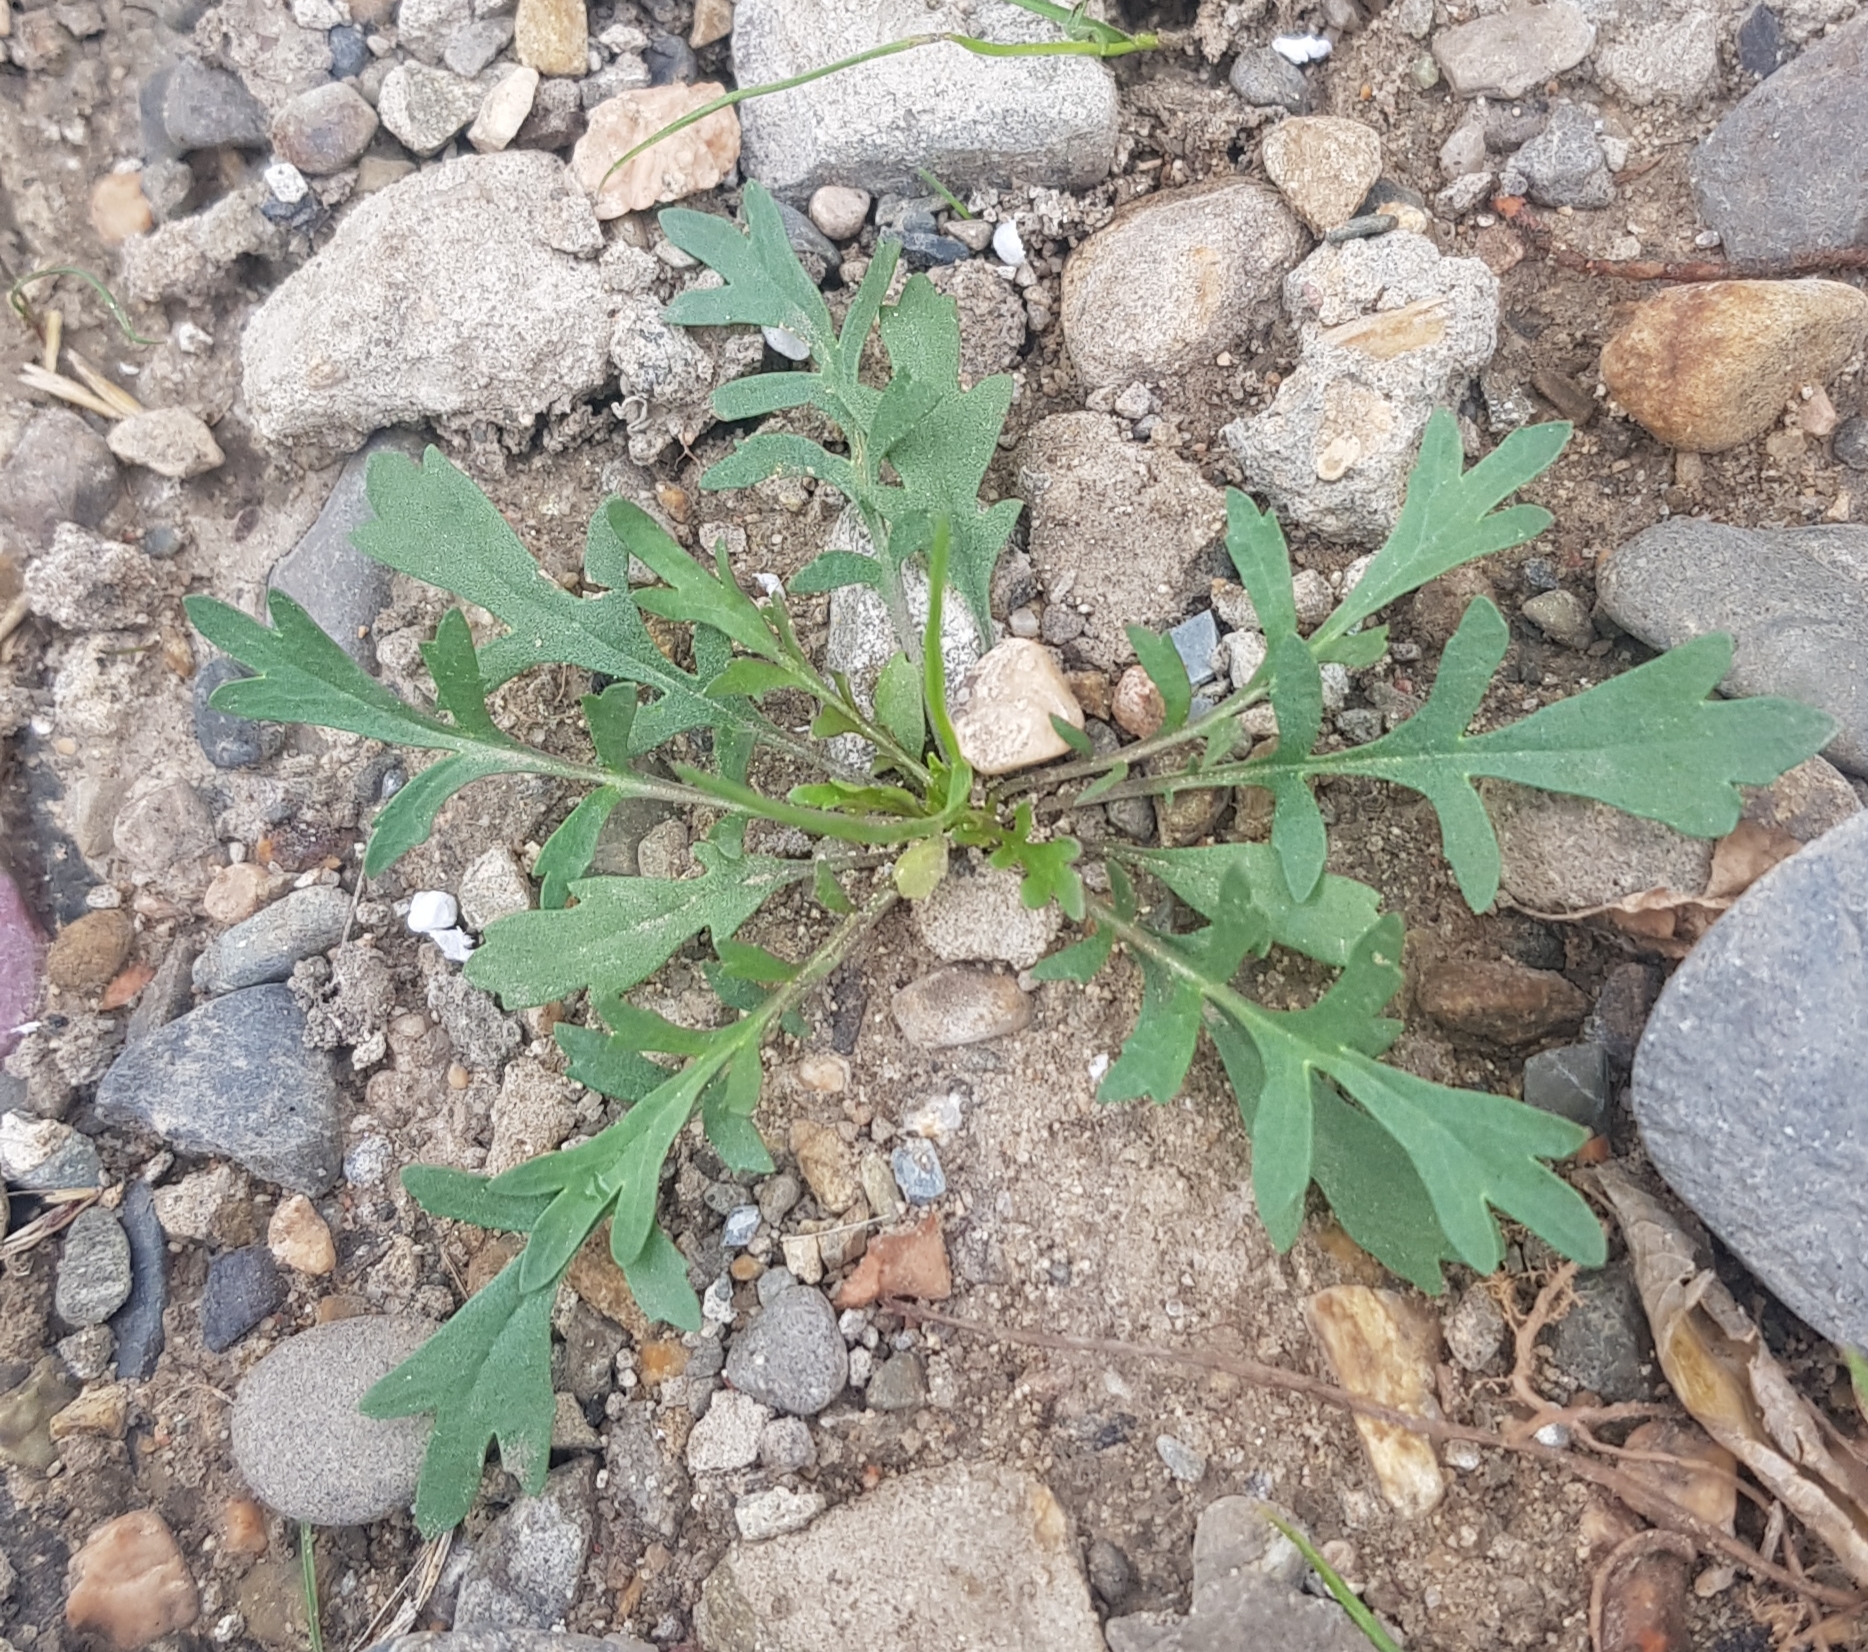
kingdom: Plantae
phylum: Tracheophyta
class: Magnoliopsida
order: Ranunculales
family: Papaveraceae
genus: Papaver
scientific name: Papaver nudicaule
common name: Arctic poppy
